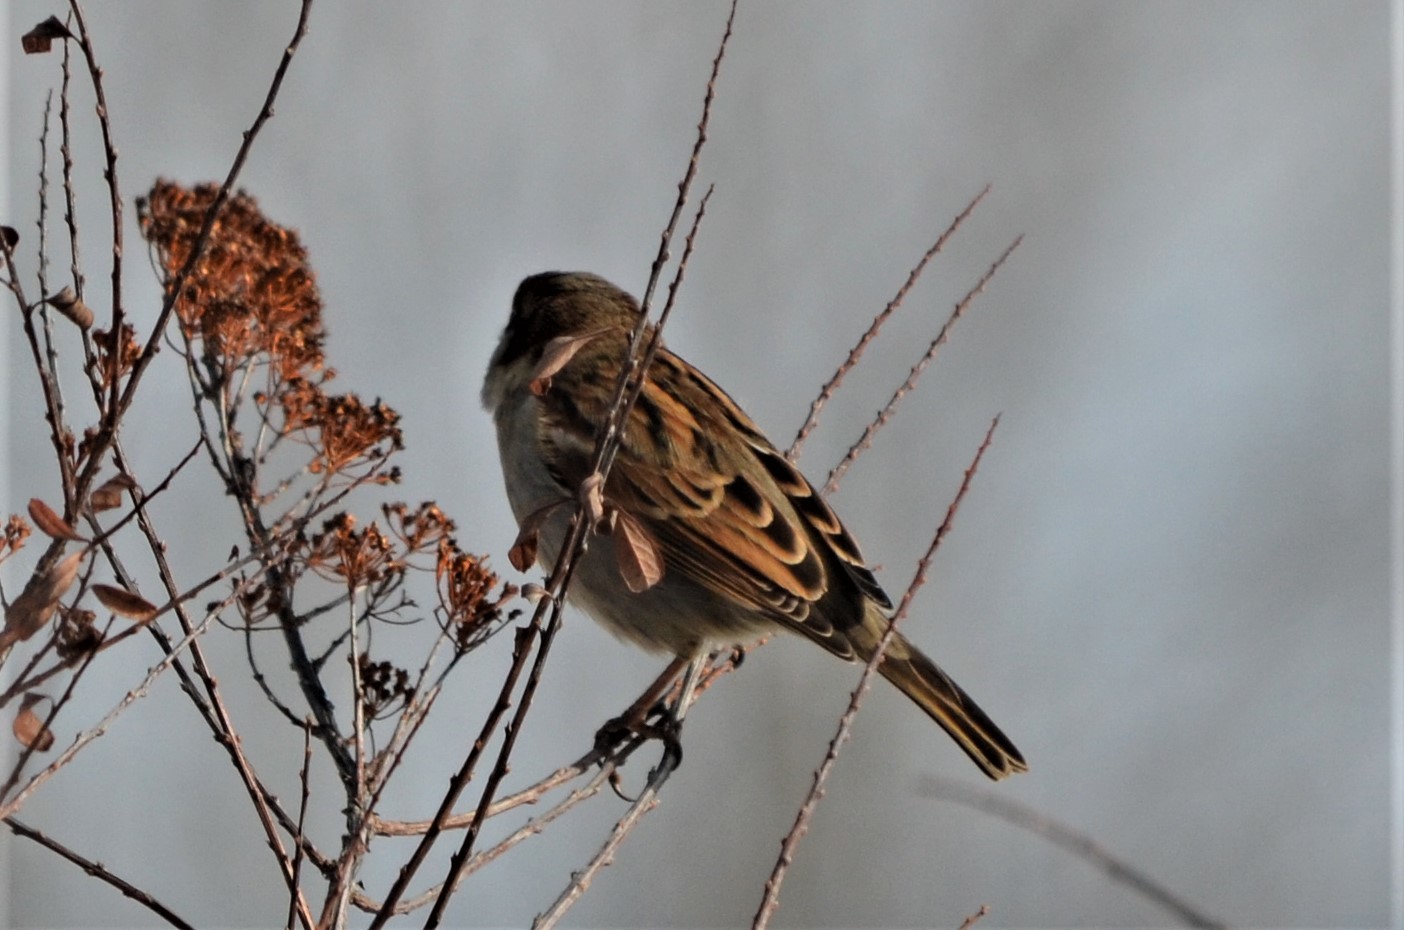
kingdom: Animalia
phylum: Chordata
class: Aves
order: Passeriformes
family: Passeridae
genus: Passer
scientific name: Passer domesticus
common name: House sparrow
